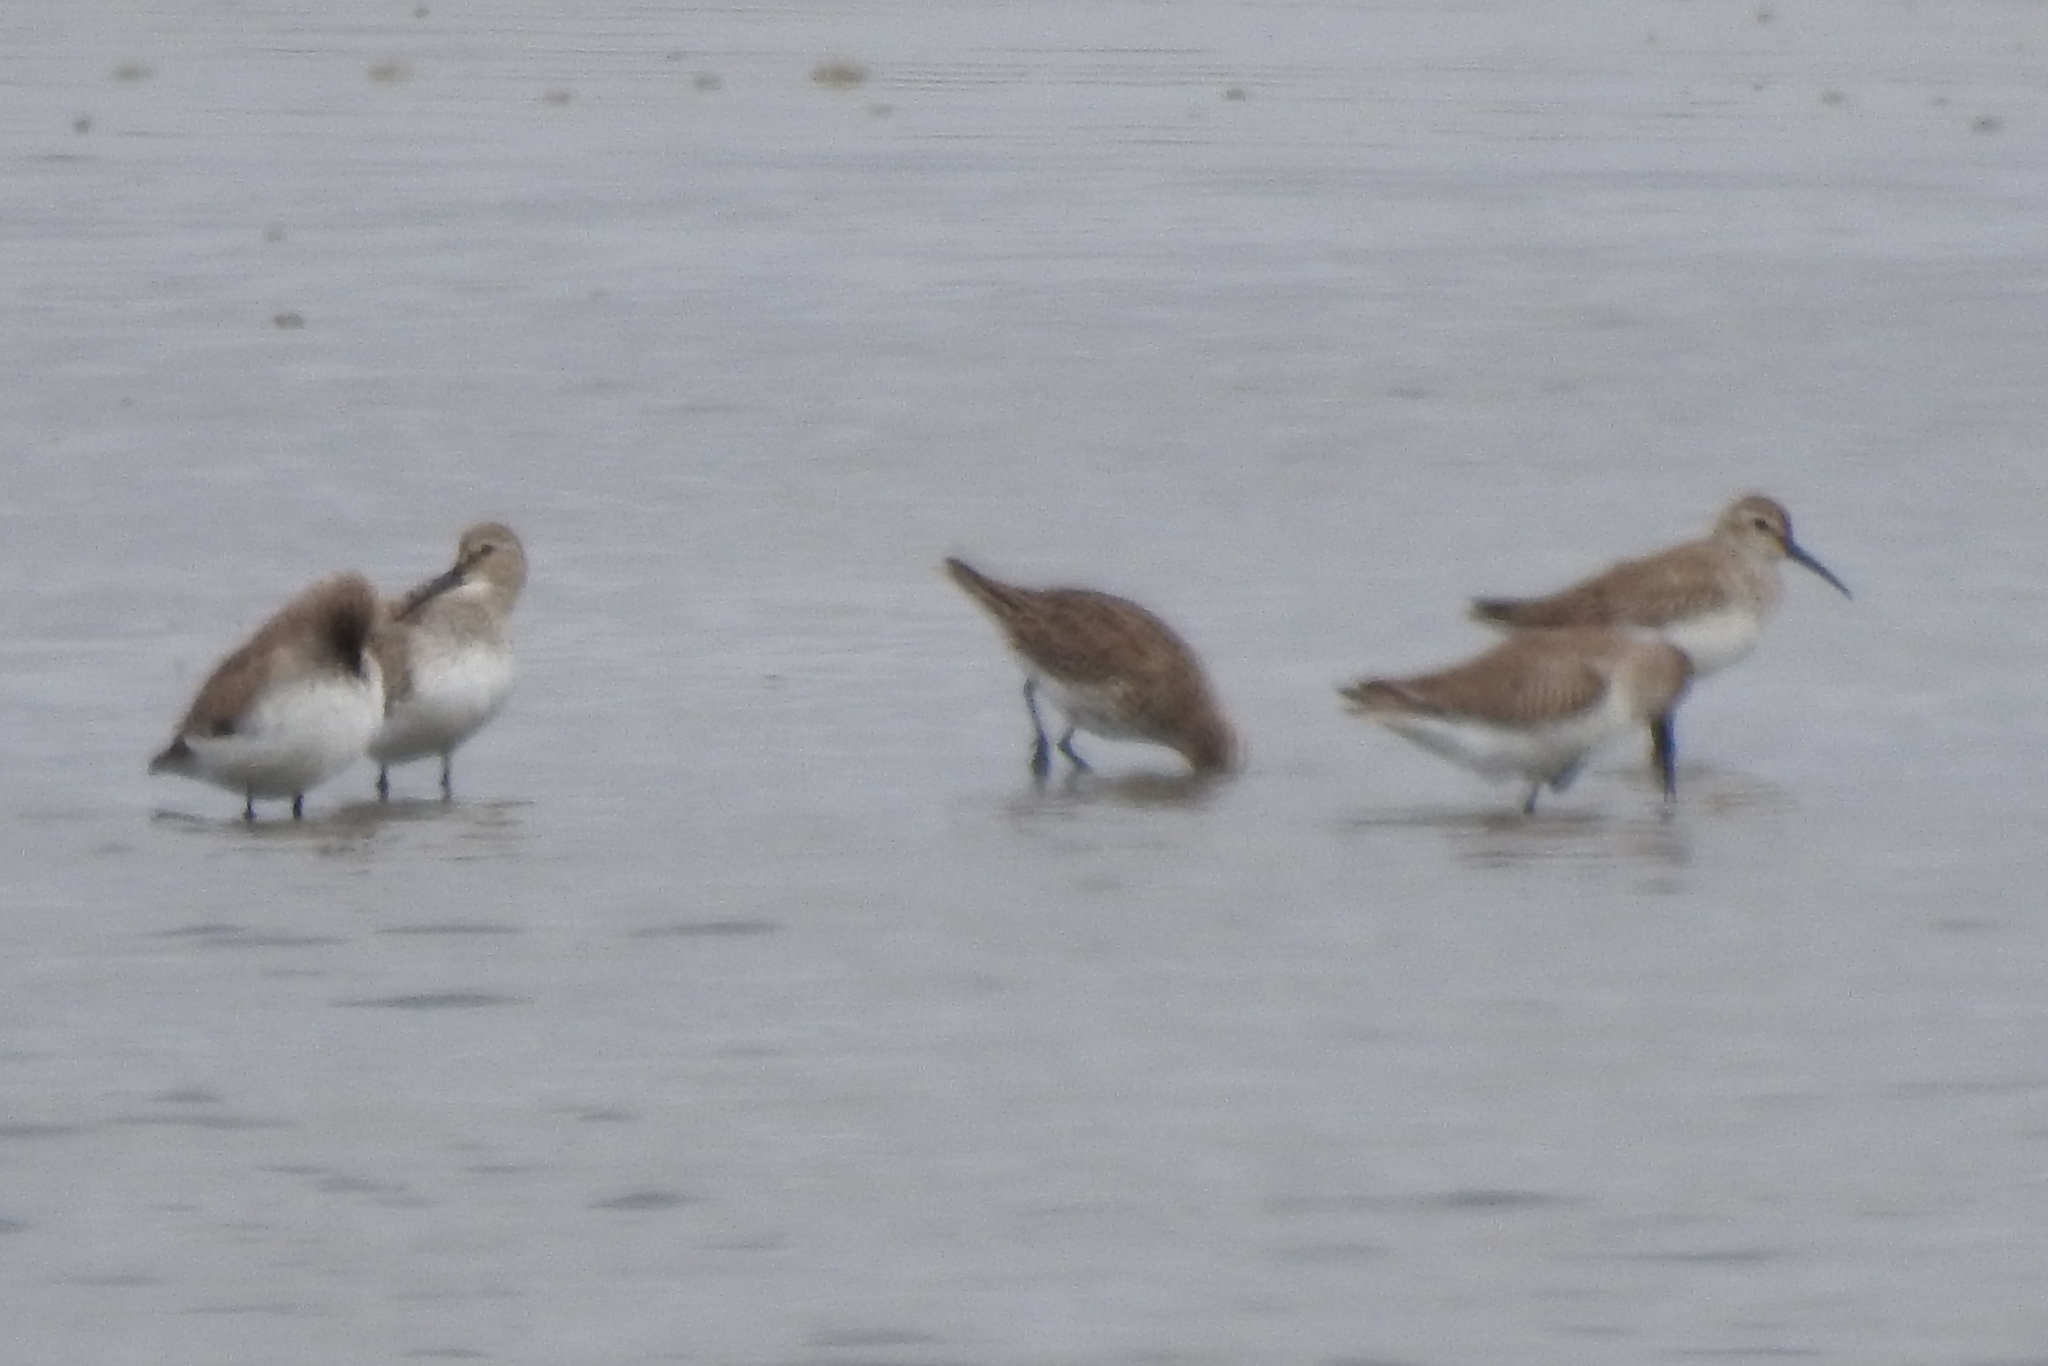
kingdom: Animalia
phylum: Chordata
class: Aves
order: Charadriiformes
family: Scolopacidae
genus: Calidris
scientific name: Calidris alpina
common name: Dunlin
